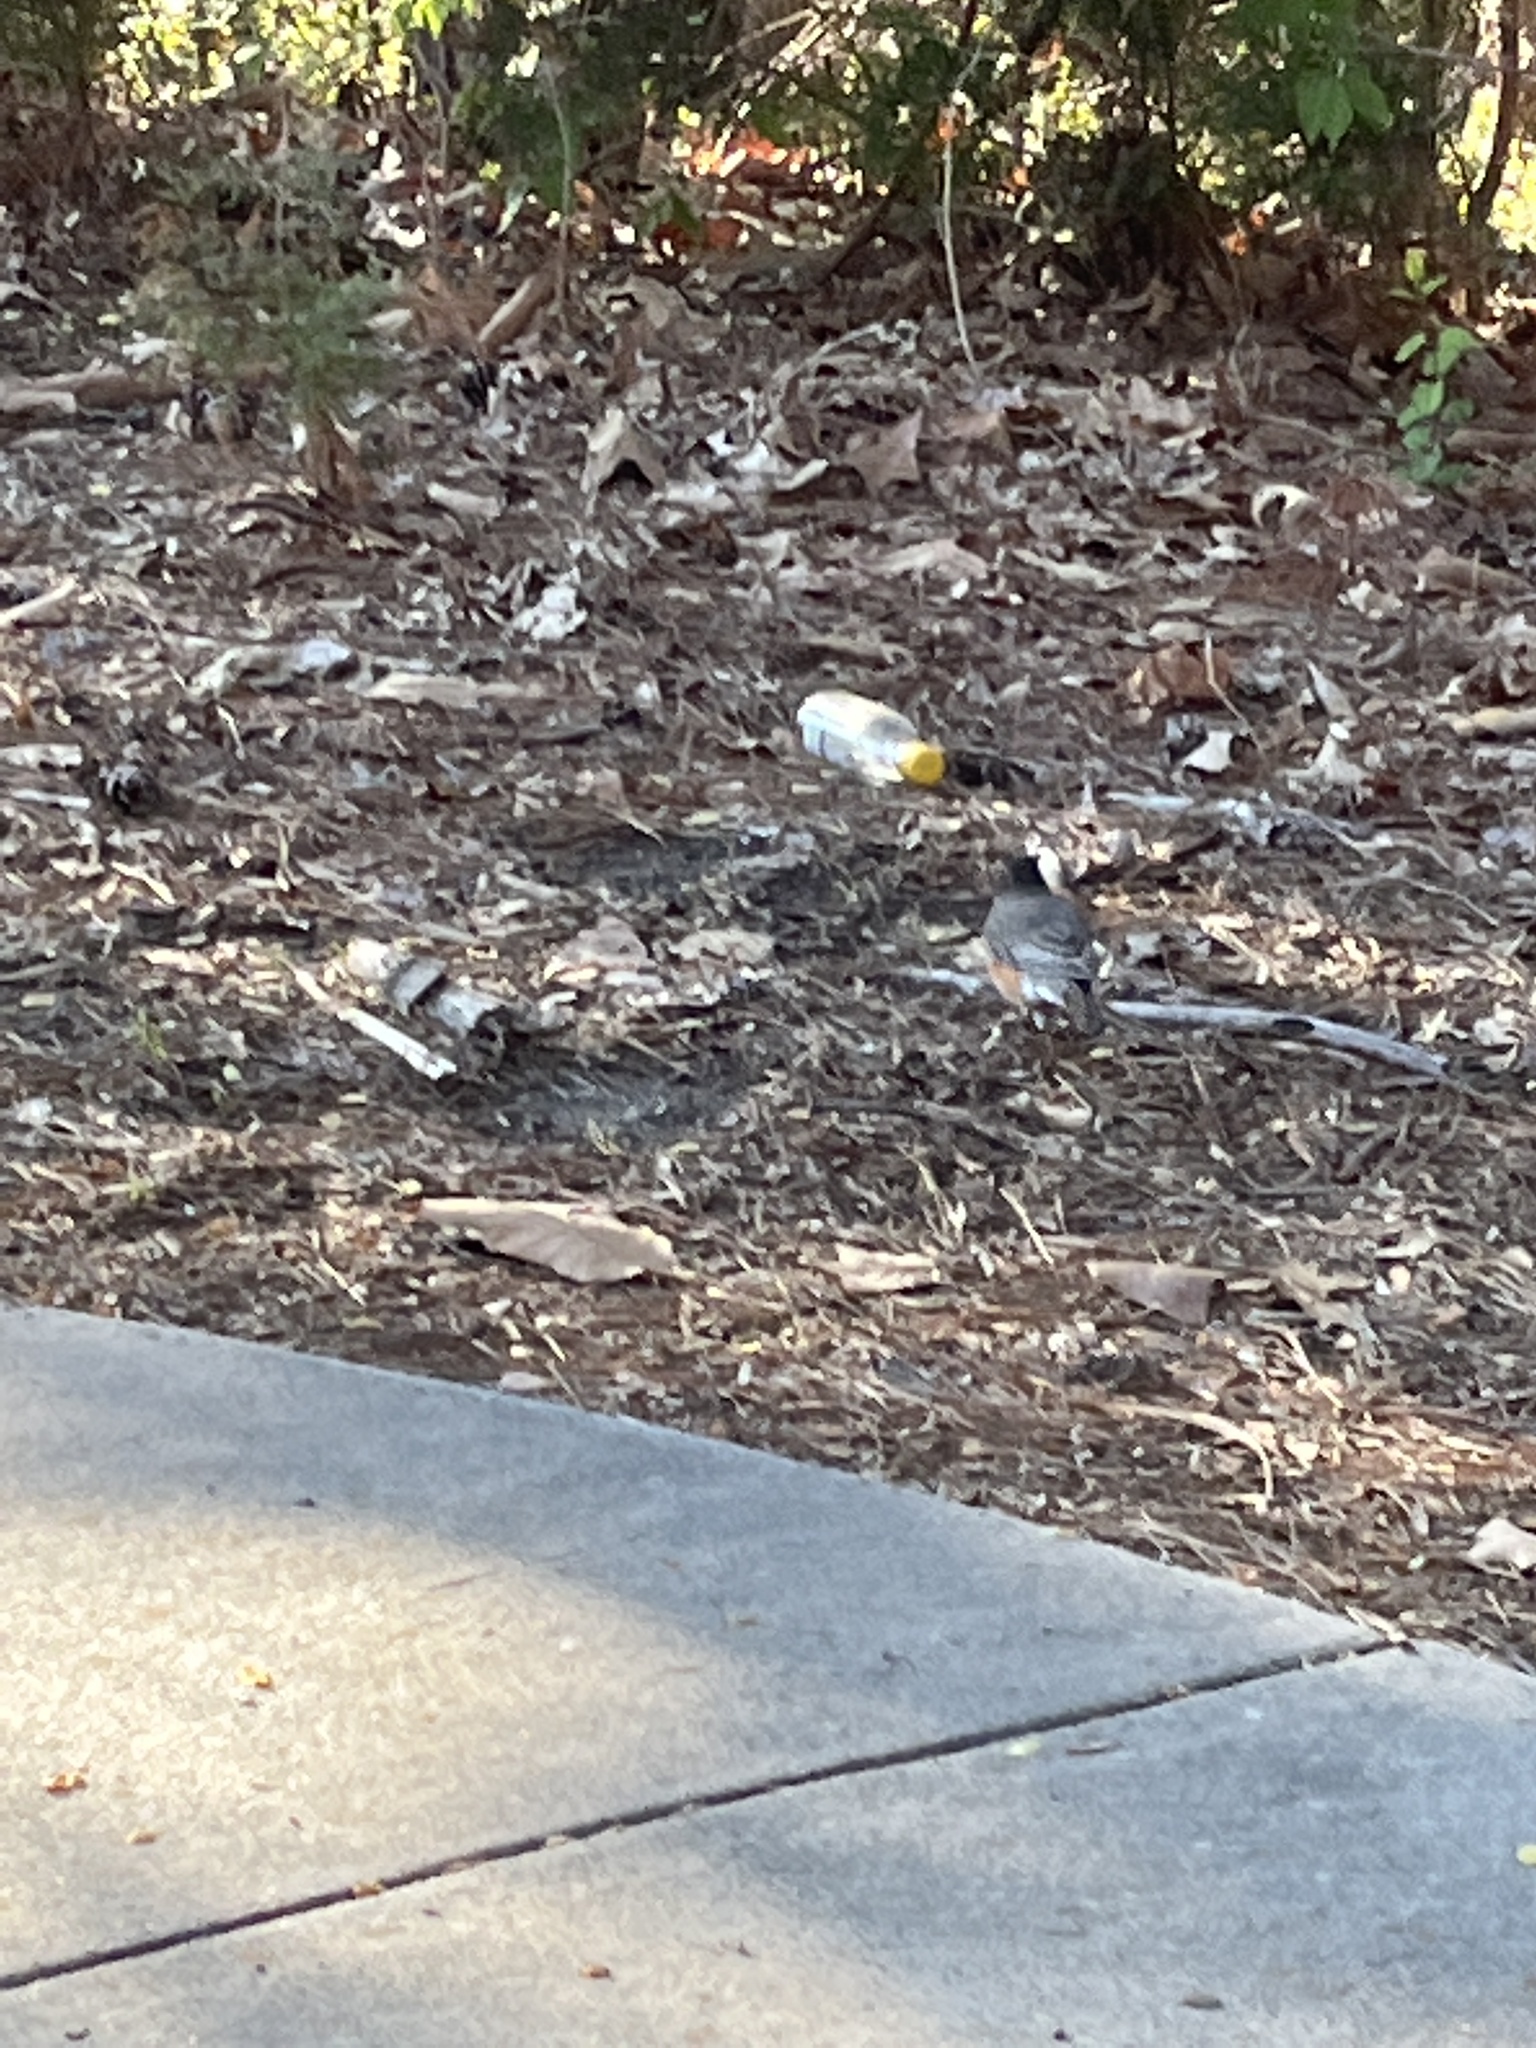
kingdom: Animalia
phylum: Chordata
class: Aves
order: Passeriformes
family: Turdidae
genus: Turdus
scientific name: Turdus migratorius
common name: American robin
